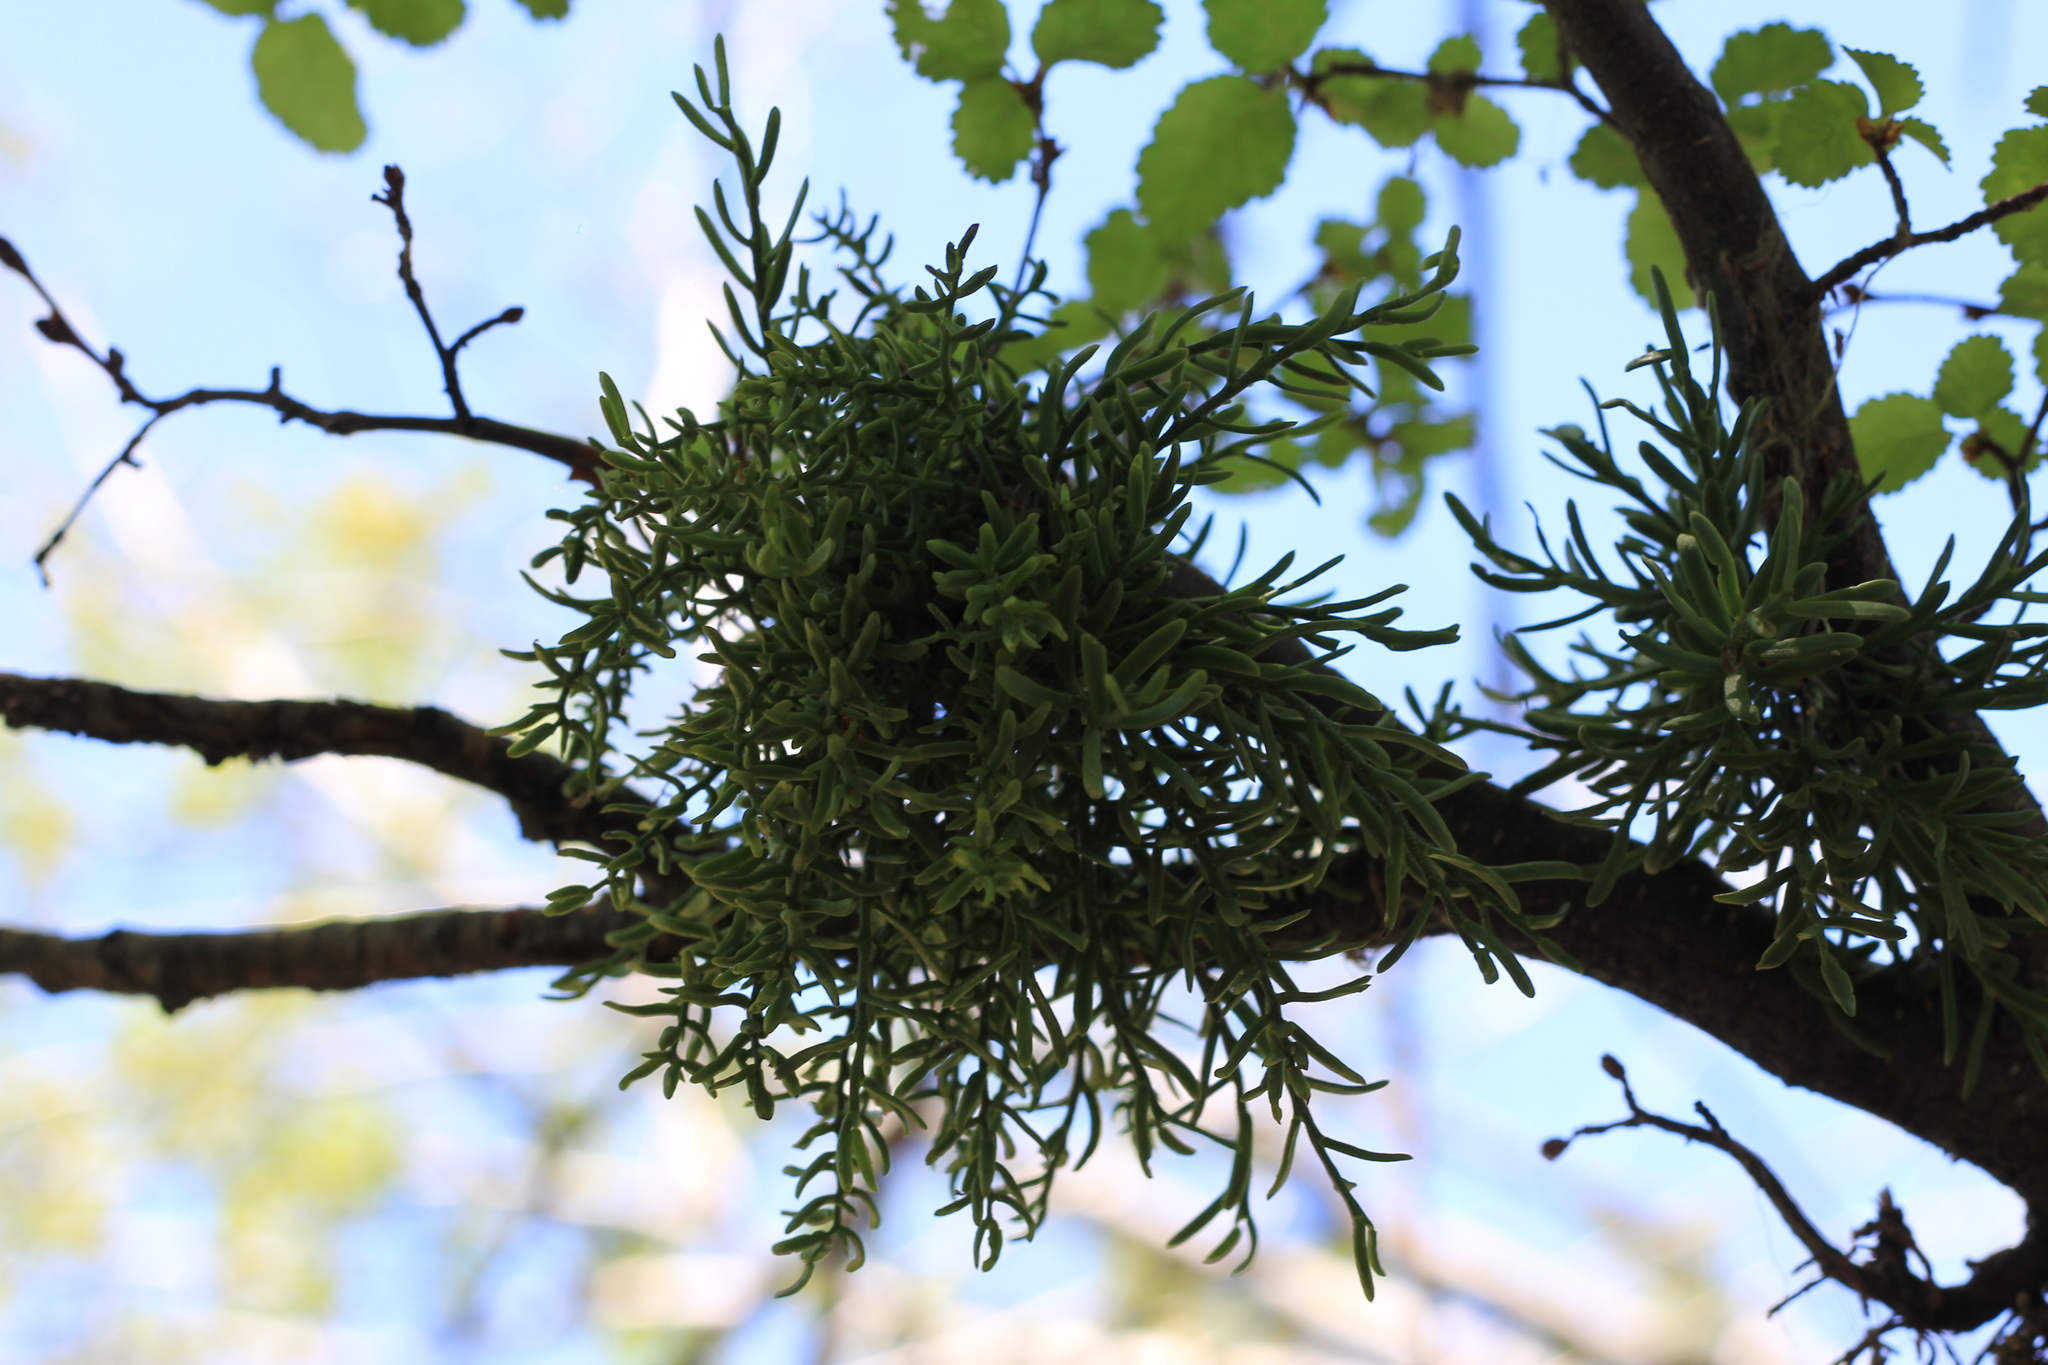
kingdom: Plantae
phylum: Tracheophyta
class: Magnoliopsida
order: Santalales
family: Misodendraceae
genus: Misodendrum
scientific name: Misodendrum linearifolium
